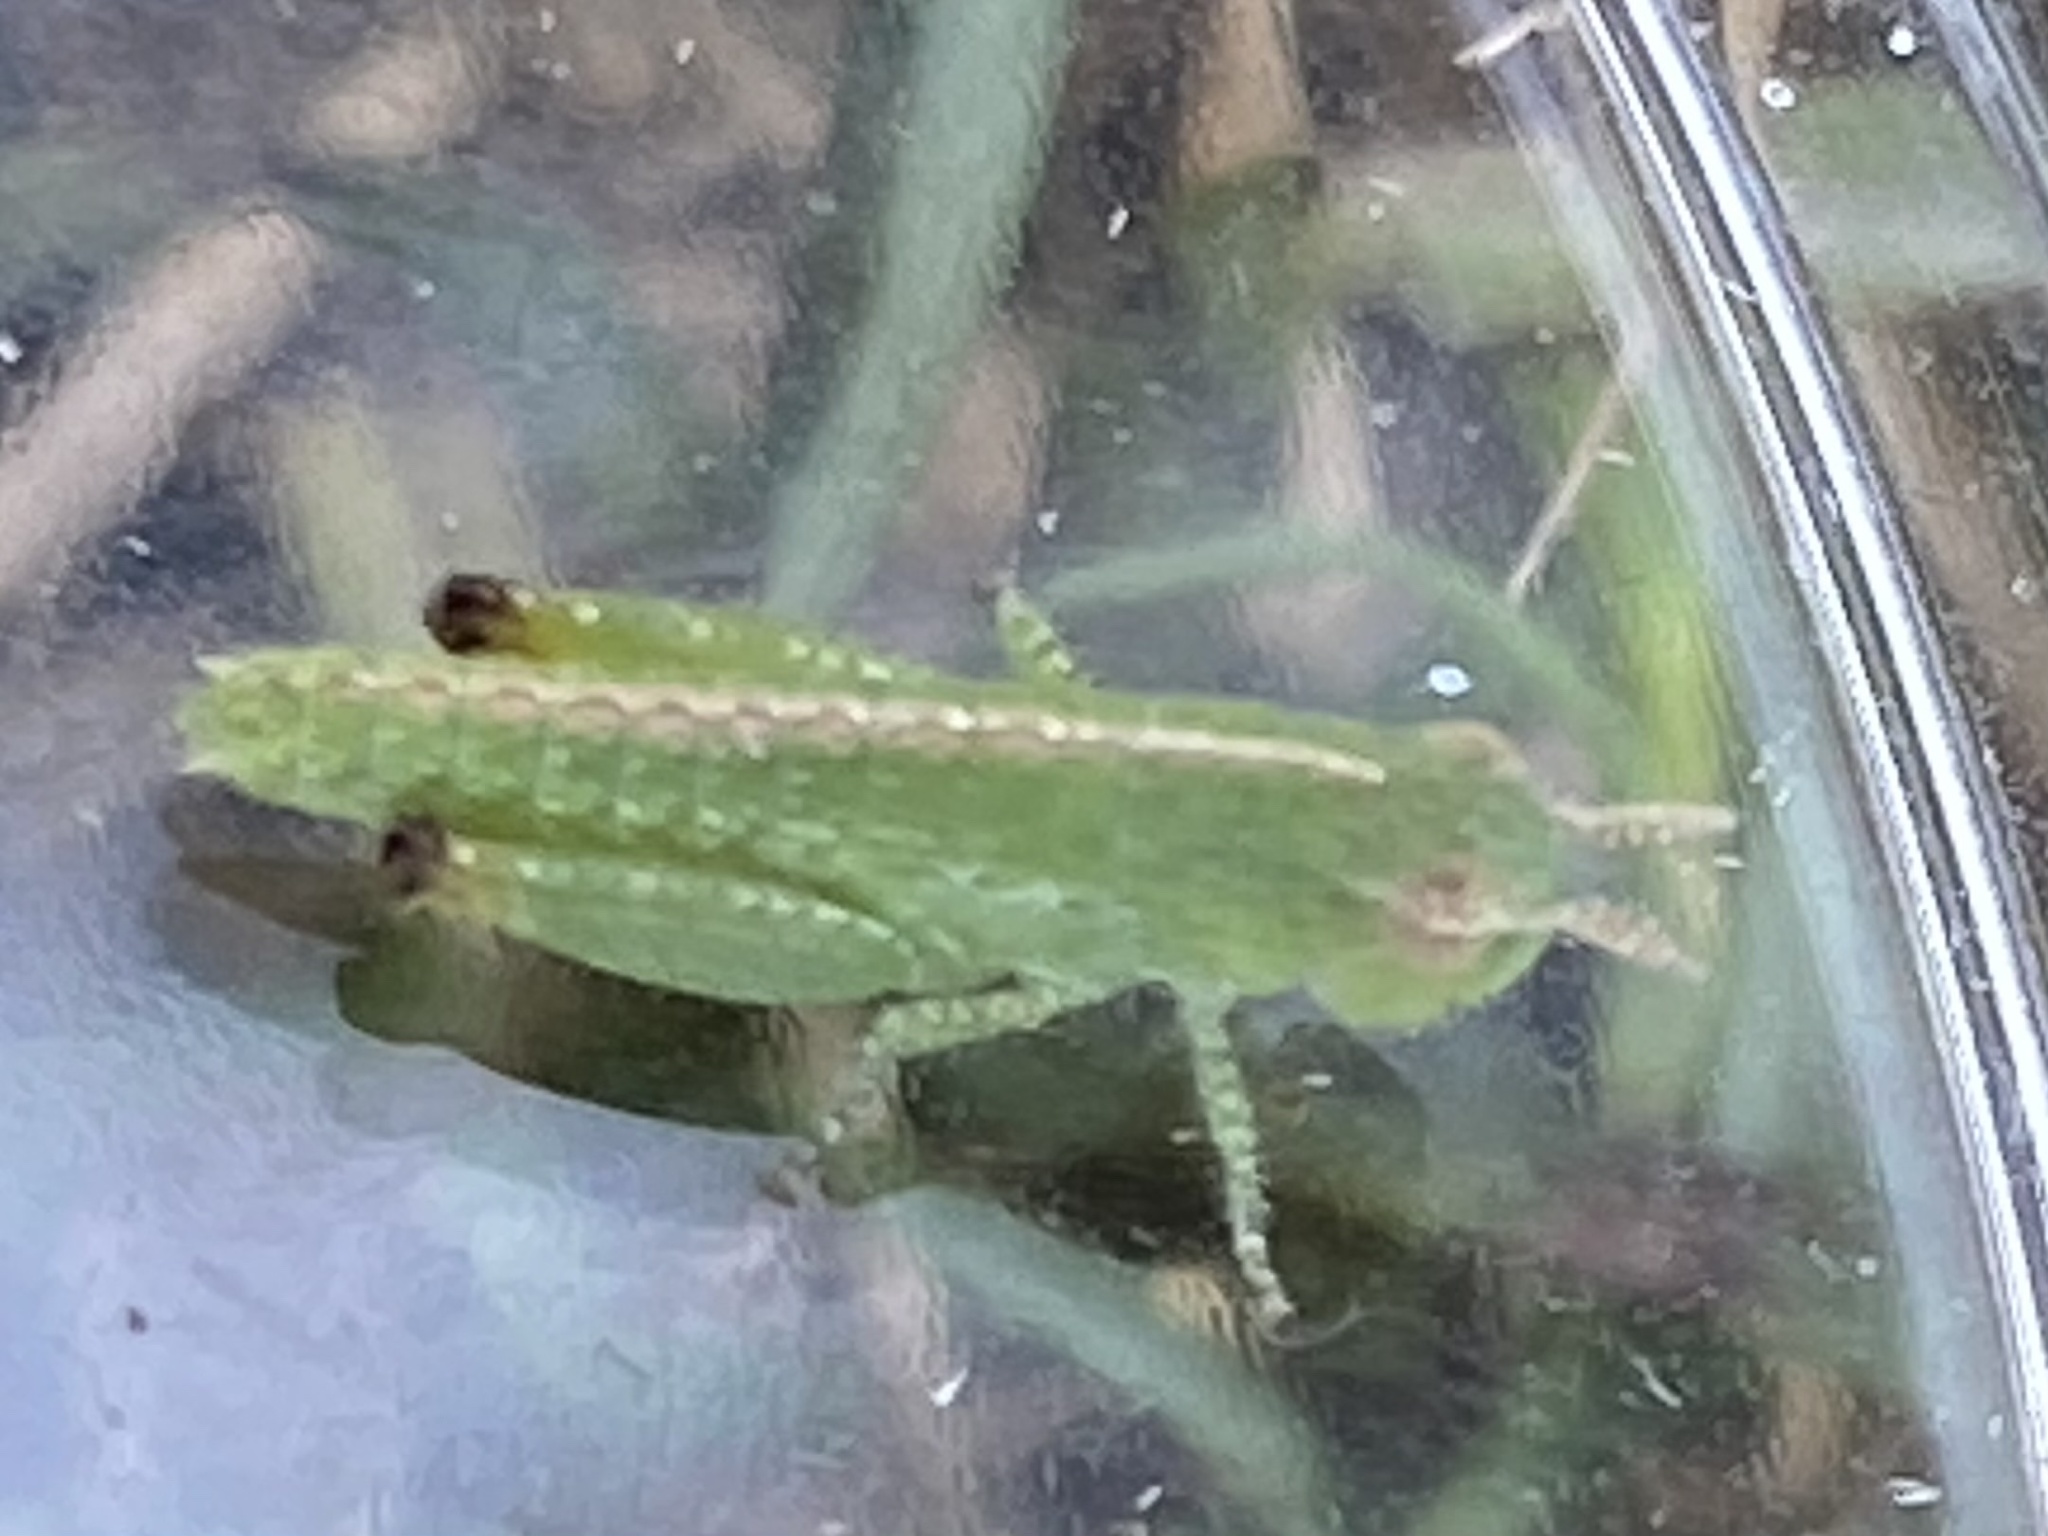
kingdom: Animalia
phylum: Arthropoda
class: Insecta
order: Orthoptera
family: Acrididae
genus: Chortophaga
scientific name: Chortophaga viridifasciata
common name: Green-striped grasshopper
